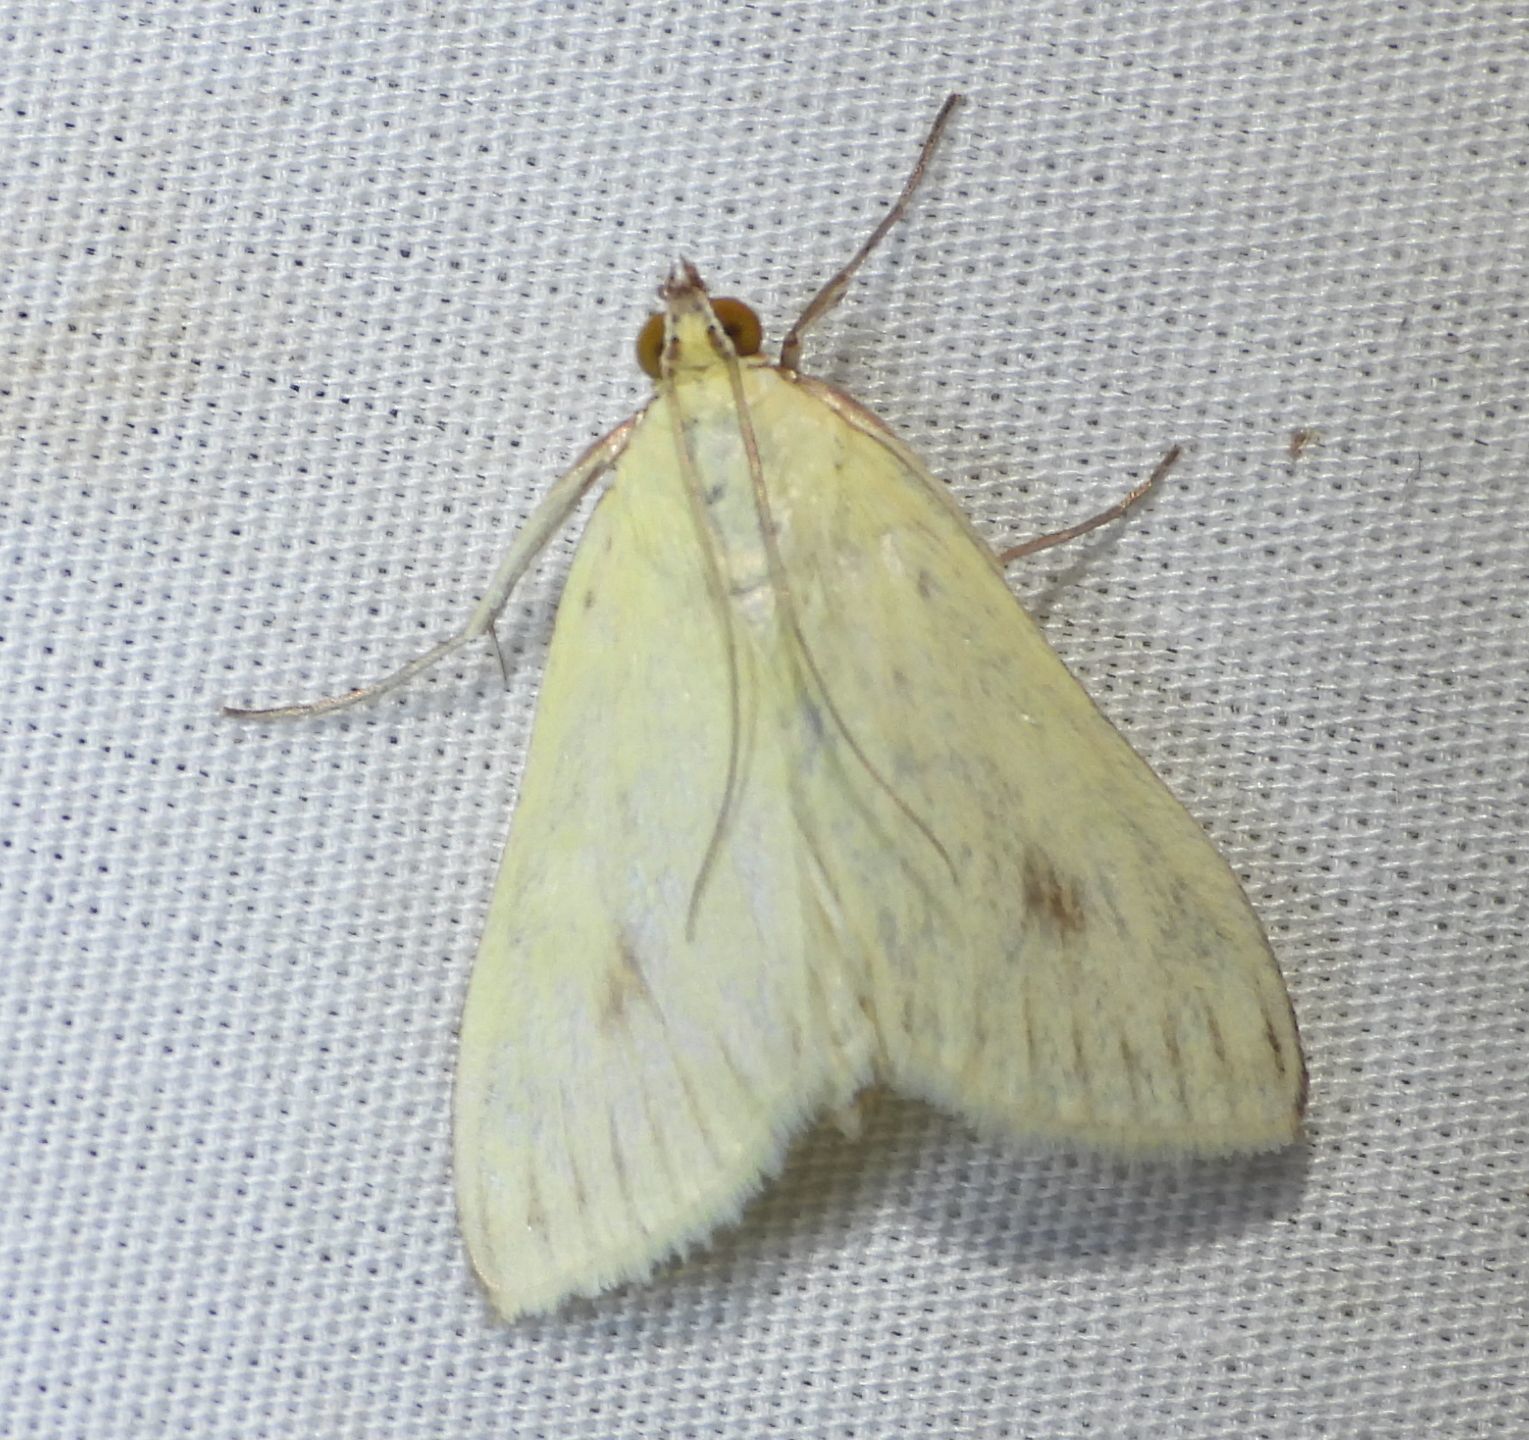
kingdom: Animalia
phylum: Arthropoda
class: Insecta
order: Lepidoptera
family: Crambidae
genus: Sitochroa
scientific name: Sitochroa palealis
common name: Greenish-yellow sitochroa moth
